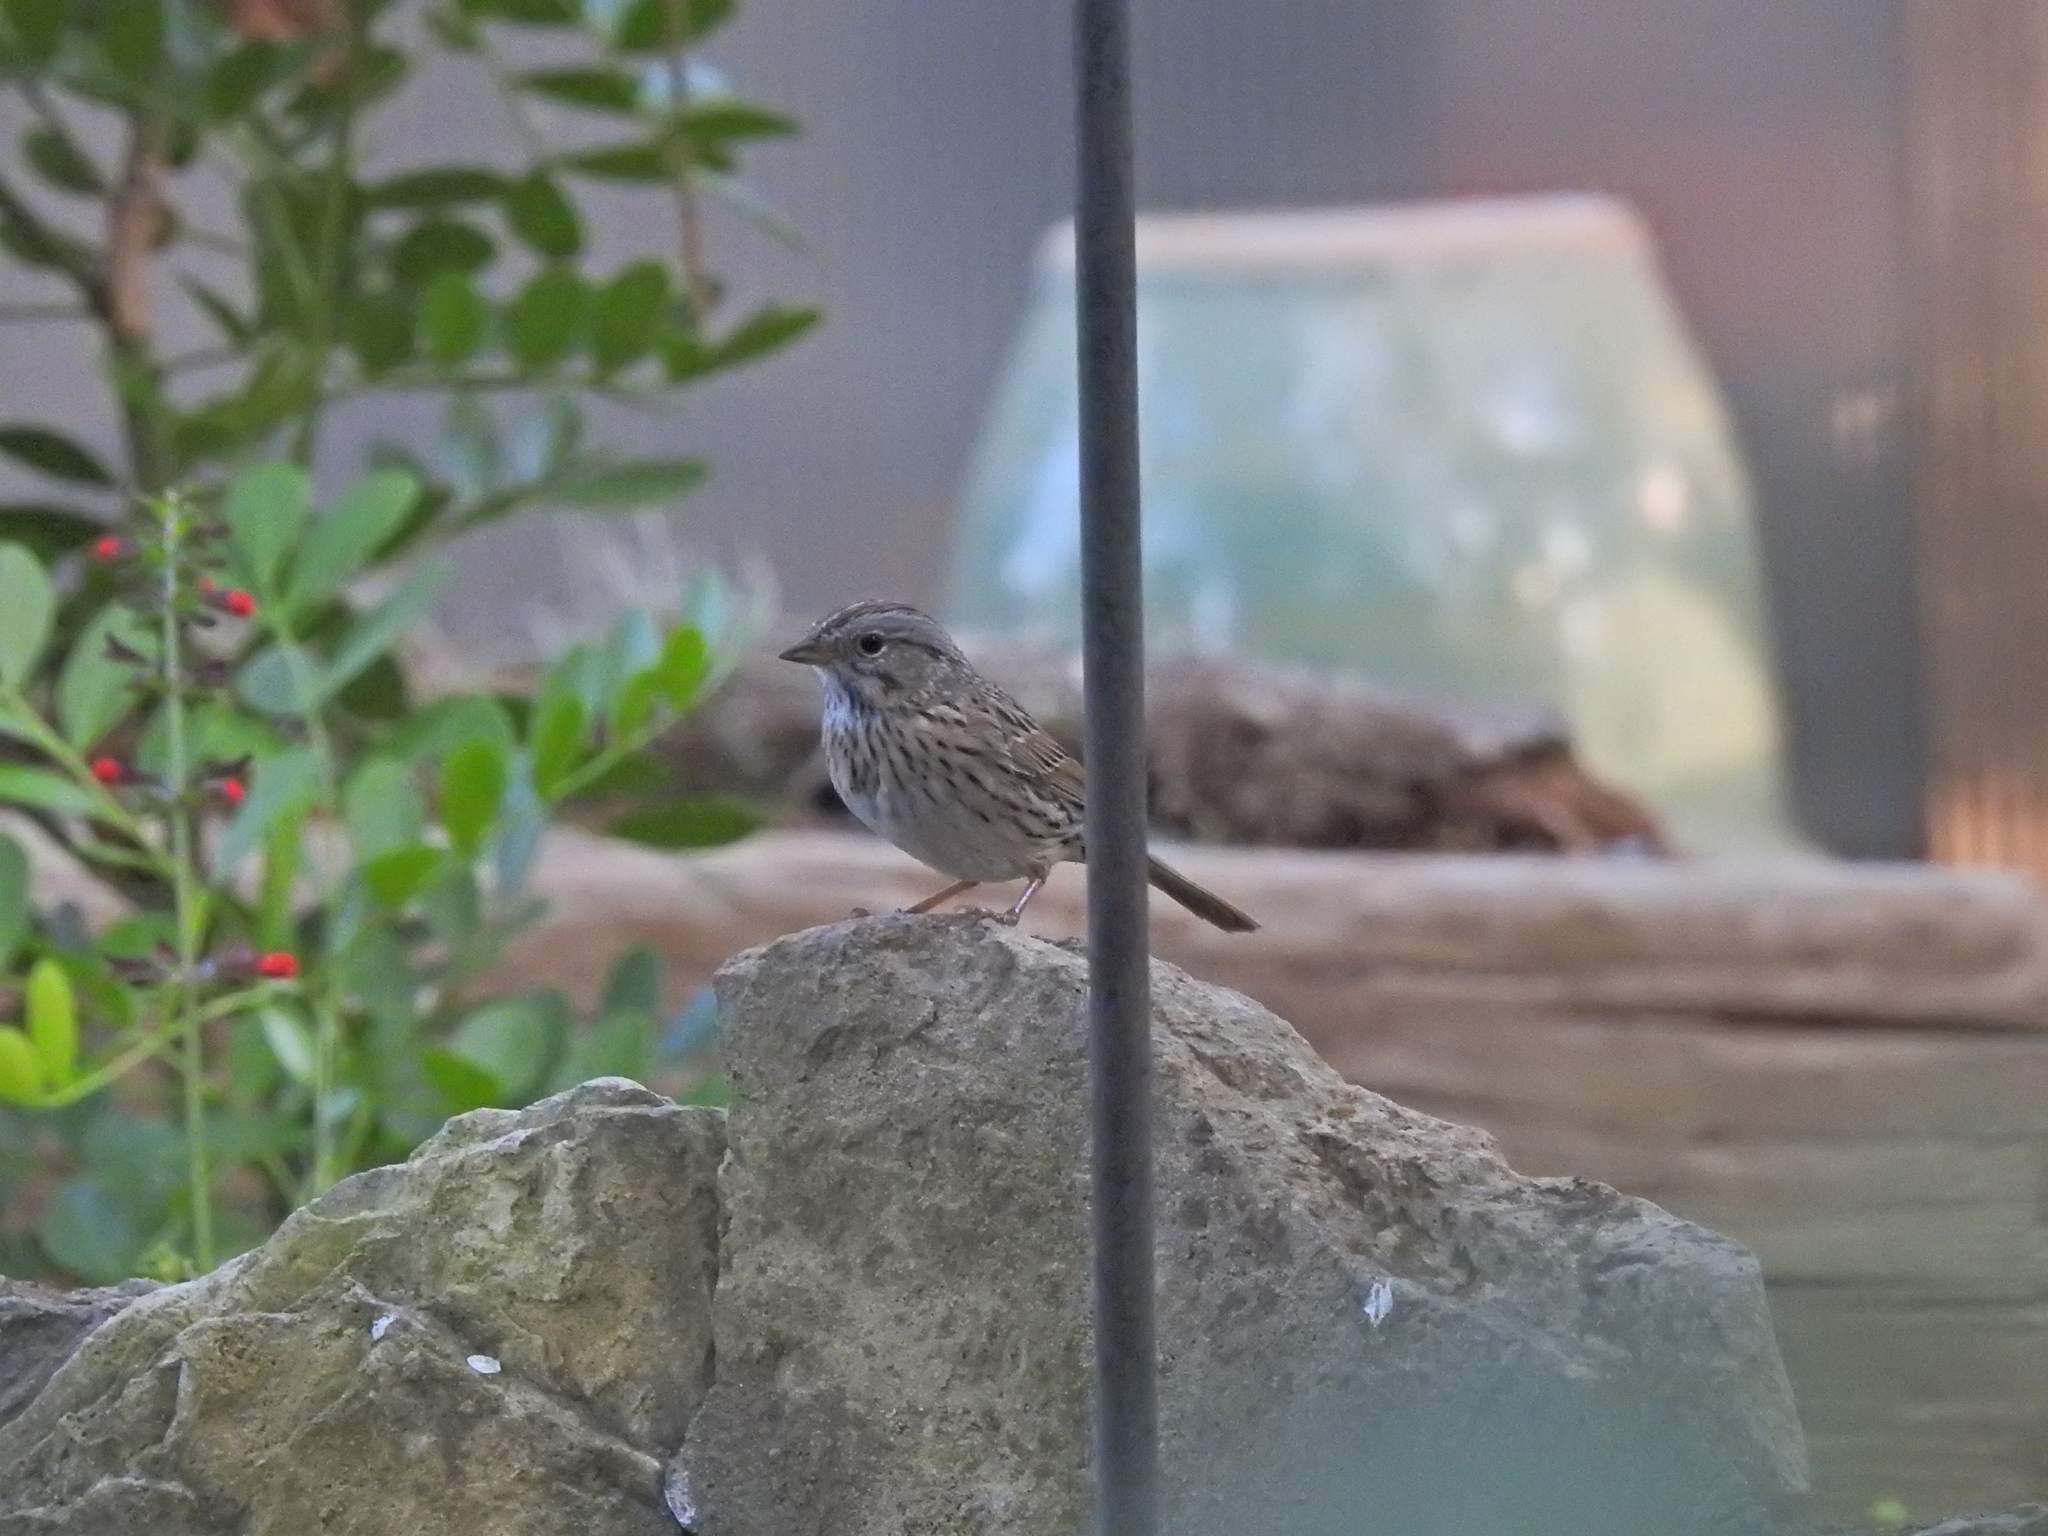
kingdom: Animalia
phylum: Chordata
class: Aves
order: Passeriformes
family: Passerellidae
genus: Melospiza
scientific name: Melospiza lincolnii
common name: Lincoln's sparrow
